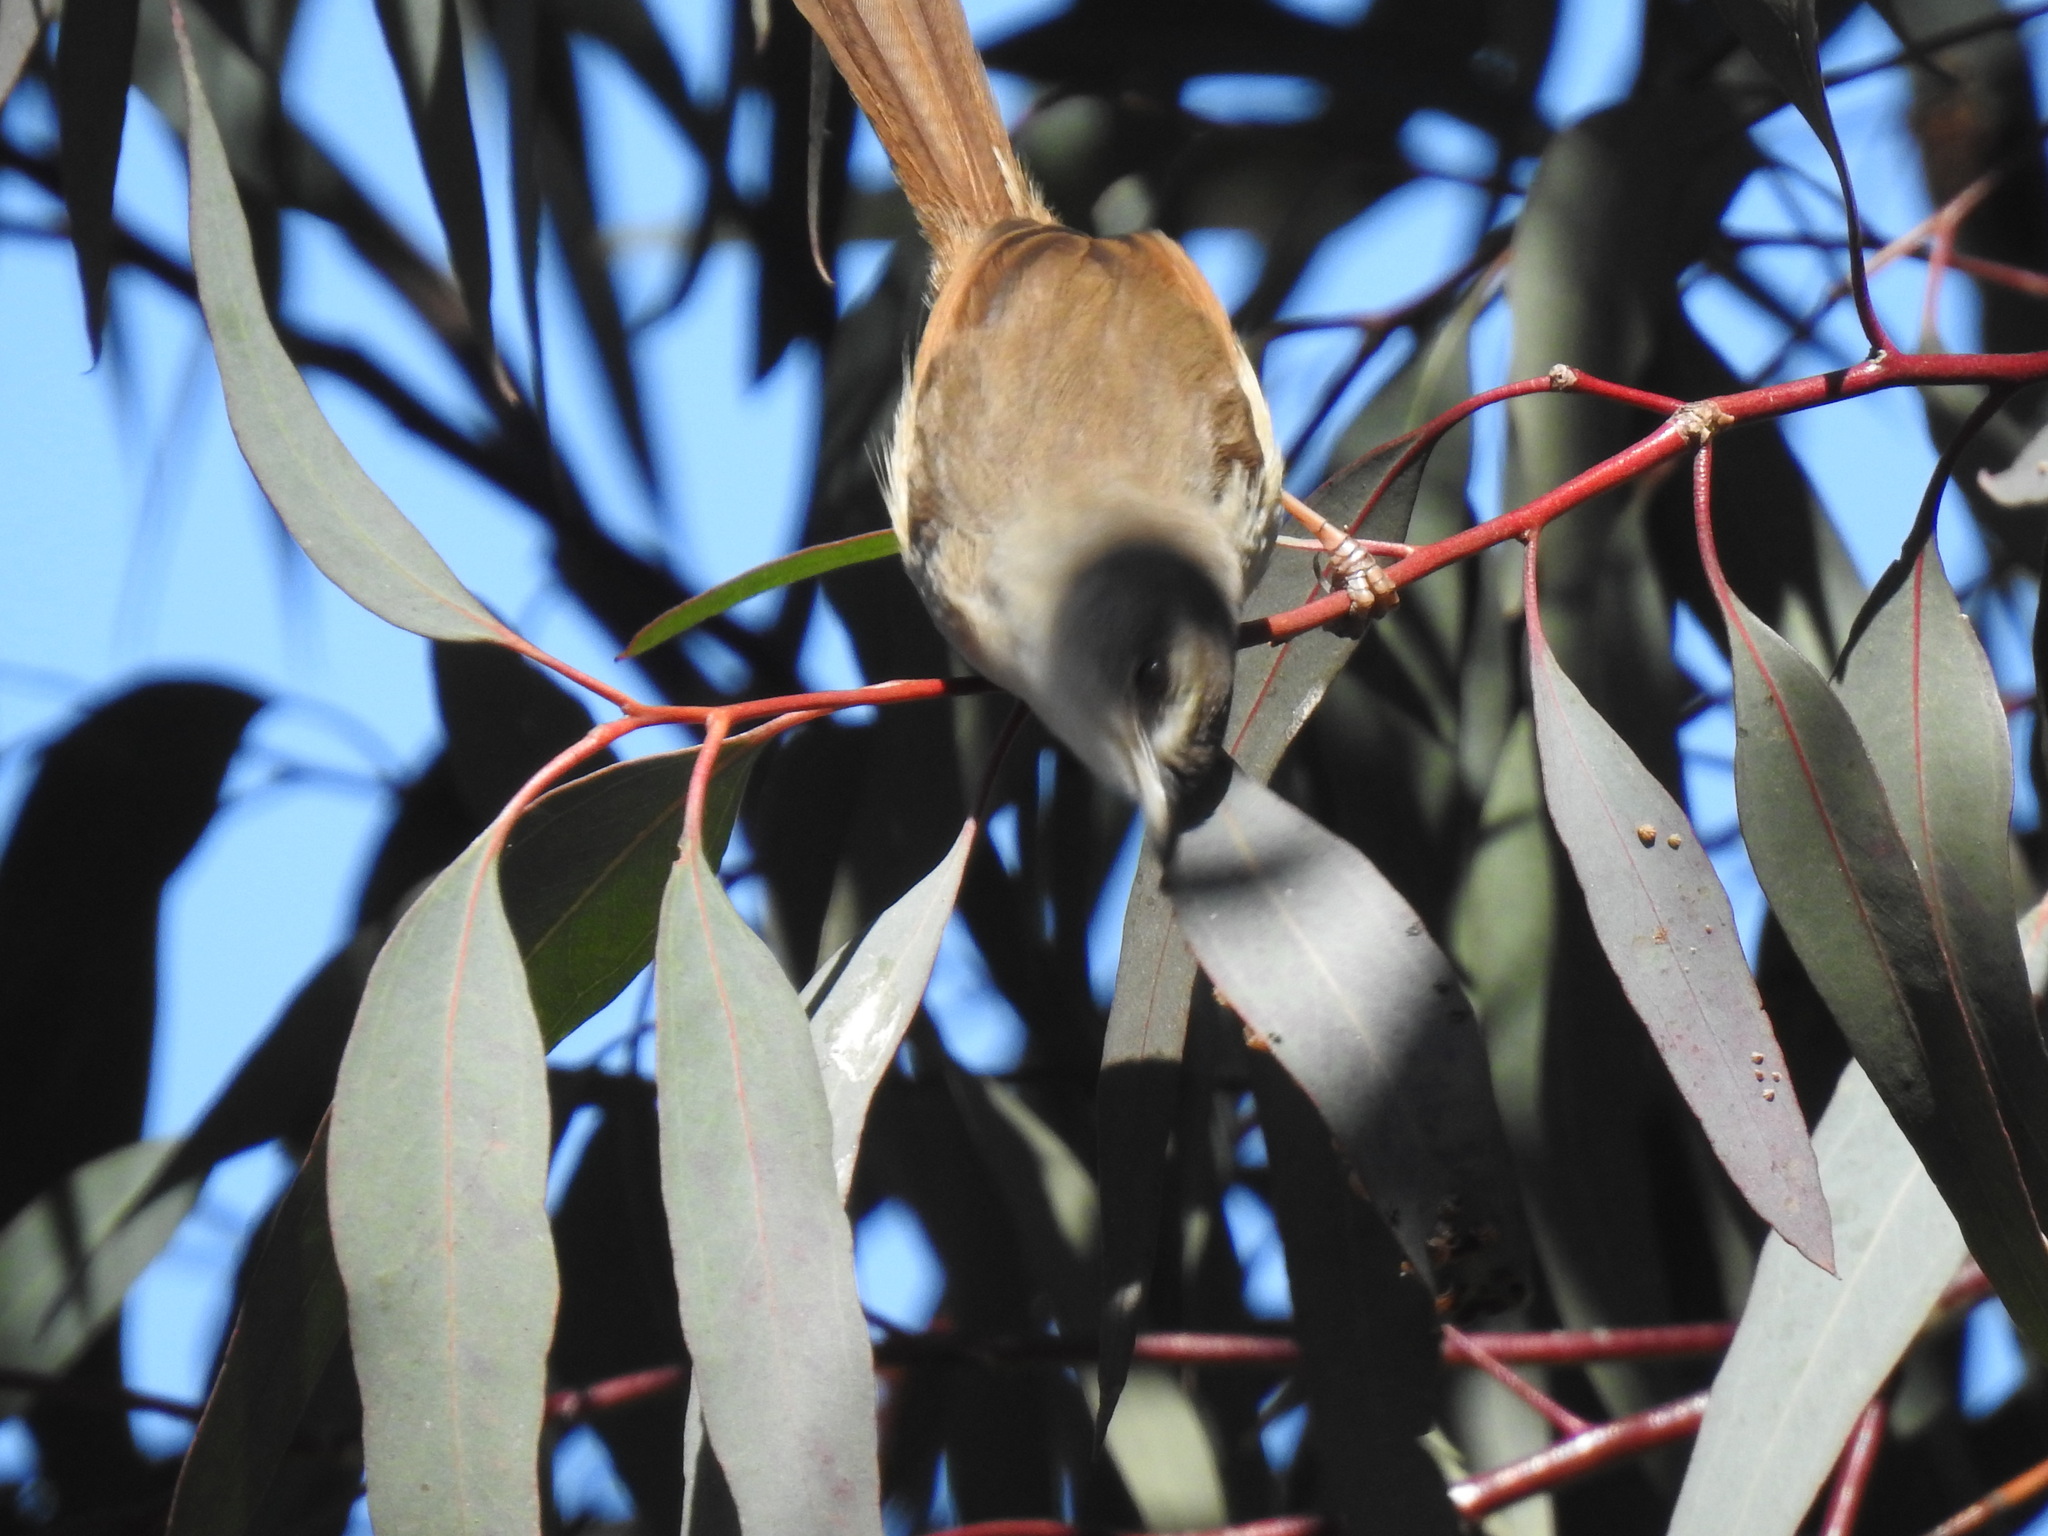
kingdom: Animalia
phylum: Chordata
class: Aves
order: Passeriformes
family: Cisticolidae
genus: Prinia
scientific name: Prinia subflava
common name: Tawny-flanked prinia
